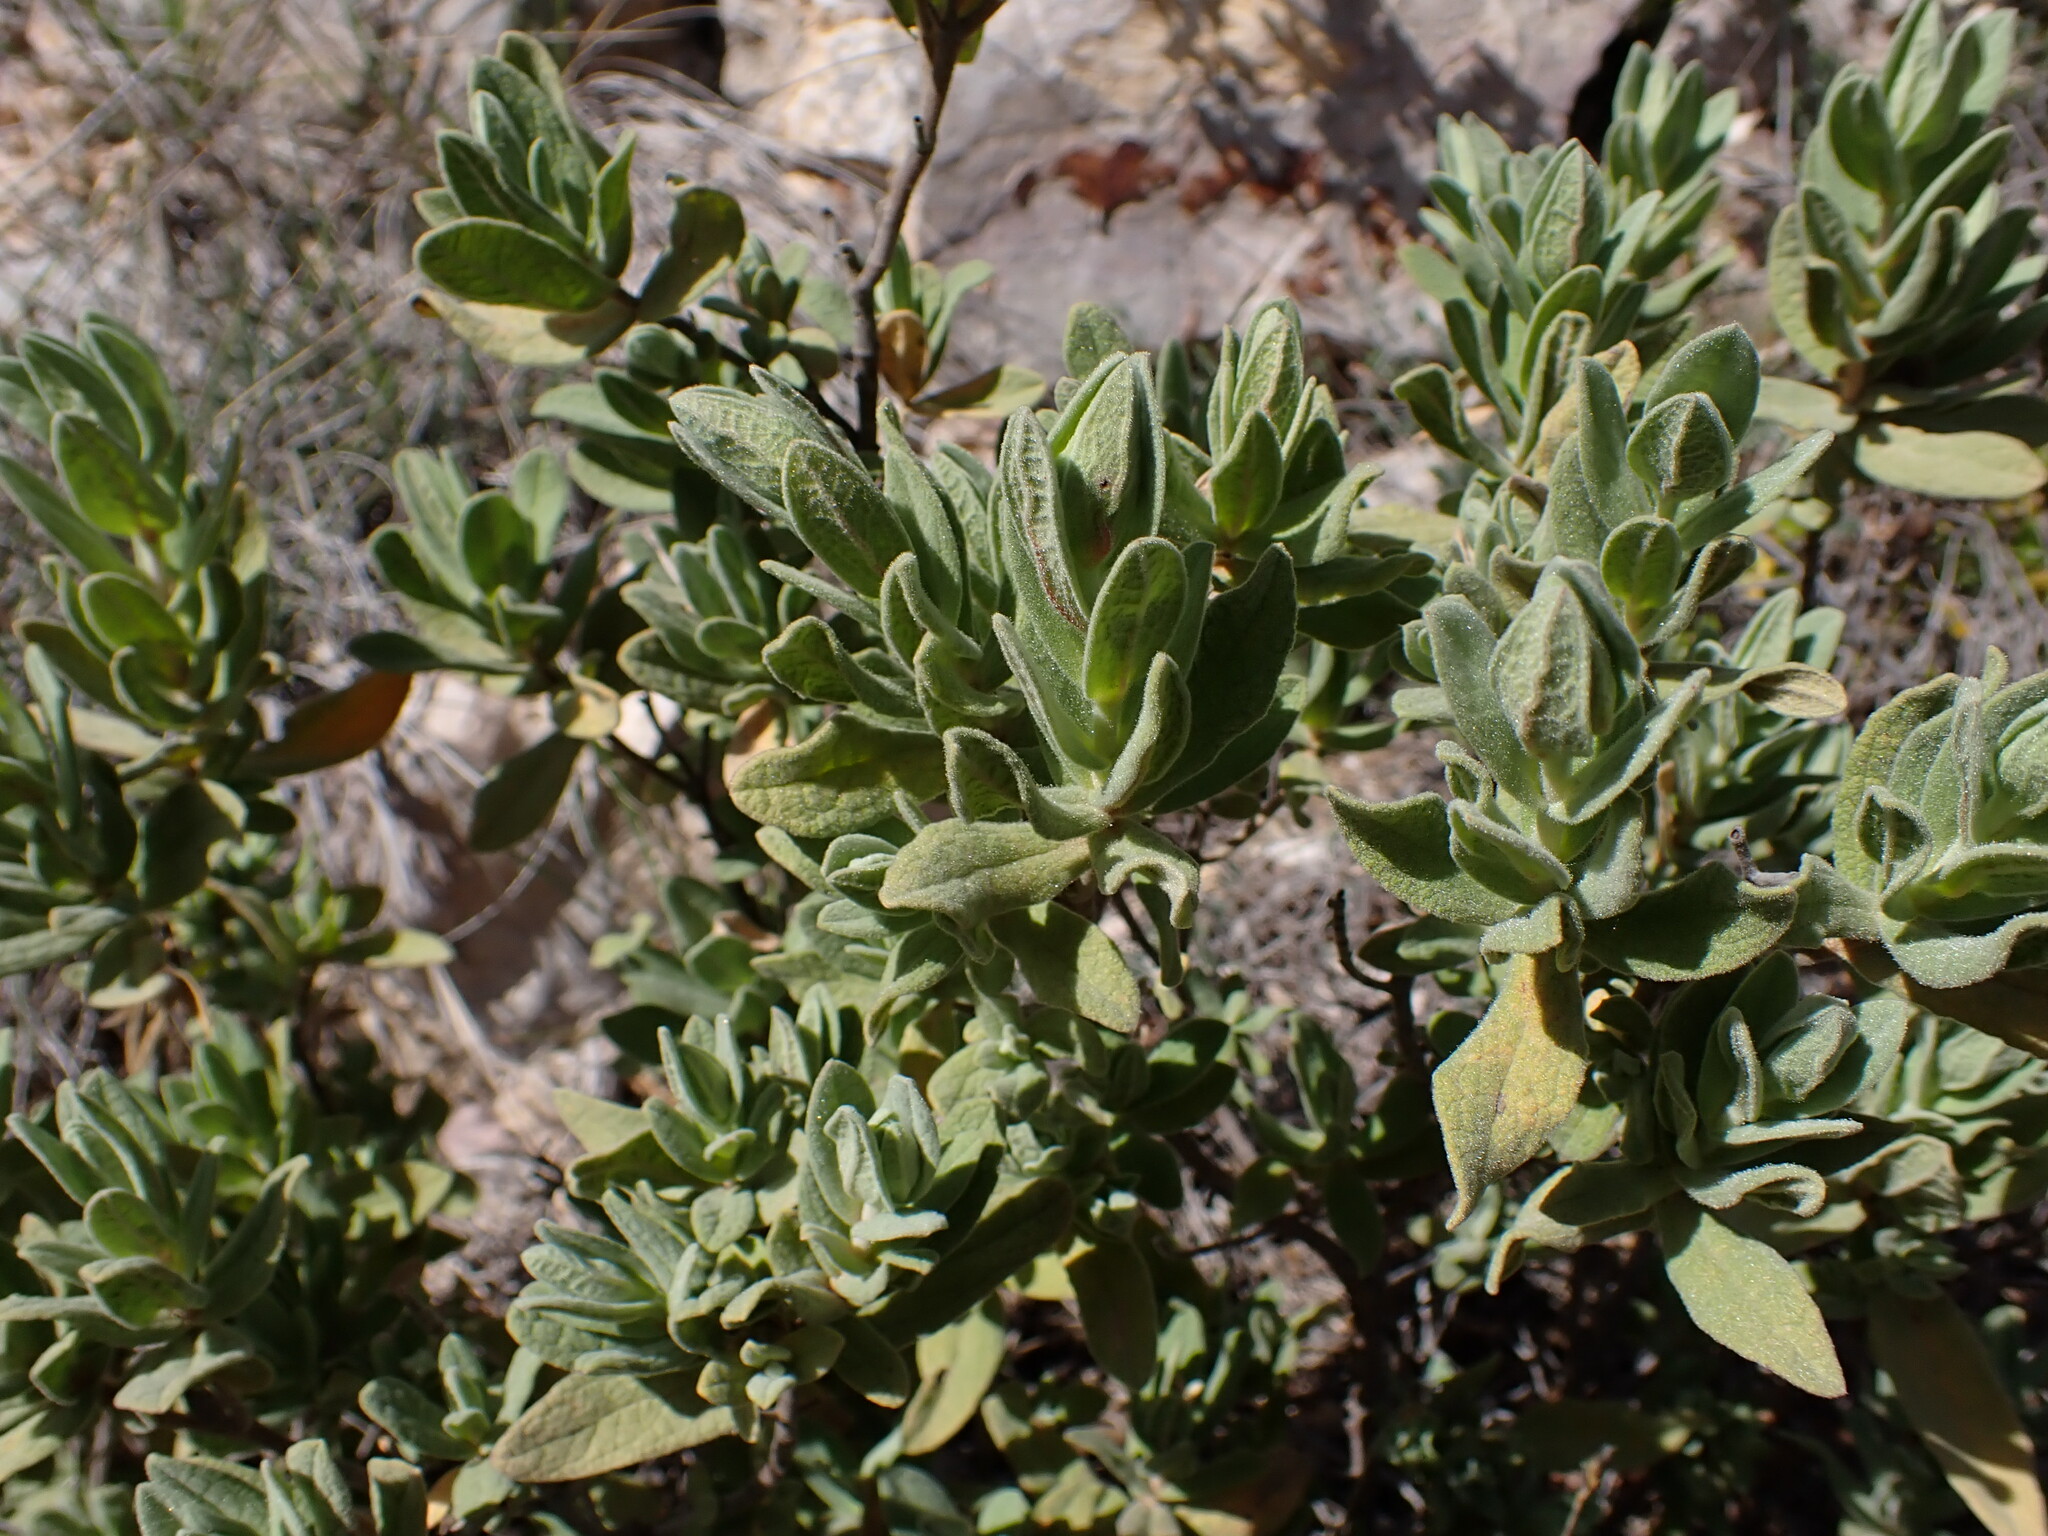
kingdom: Plantae
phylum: Tracheophyta
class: Magnoliopsida
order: Malvales
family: Cistaceae
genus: Cistus
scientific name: Cistus albidus
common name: White-leaf rock-rose
